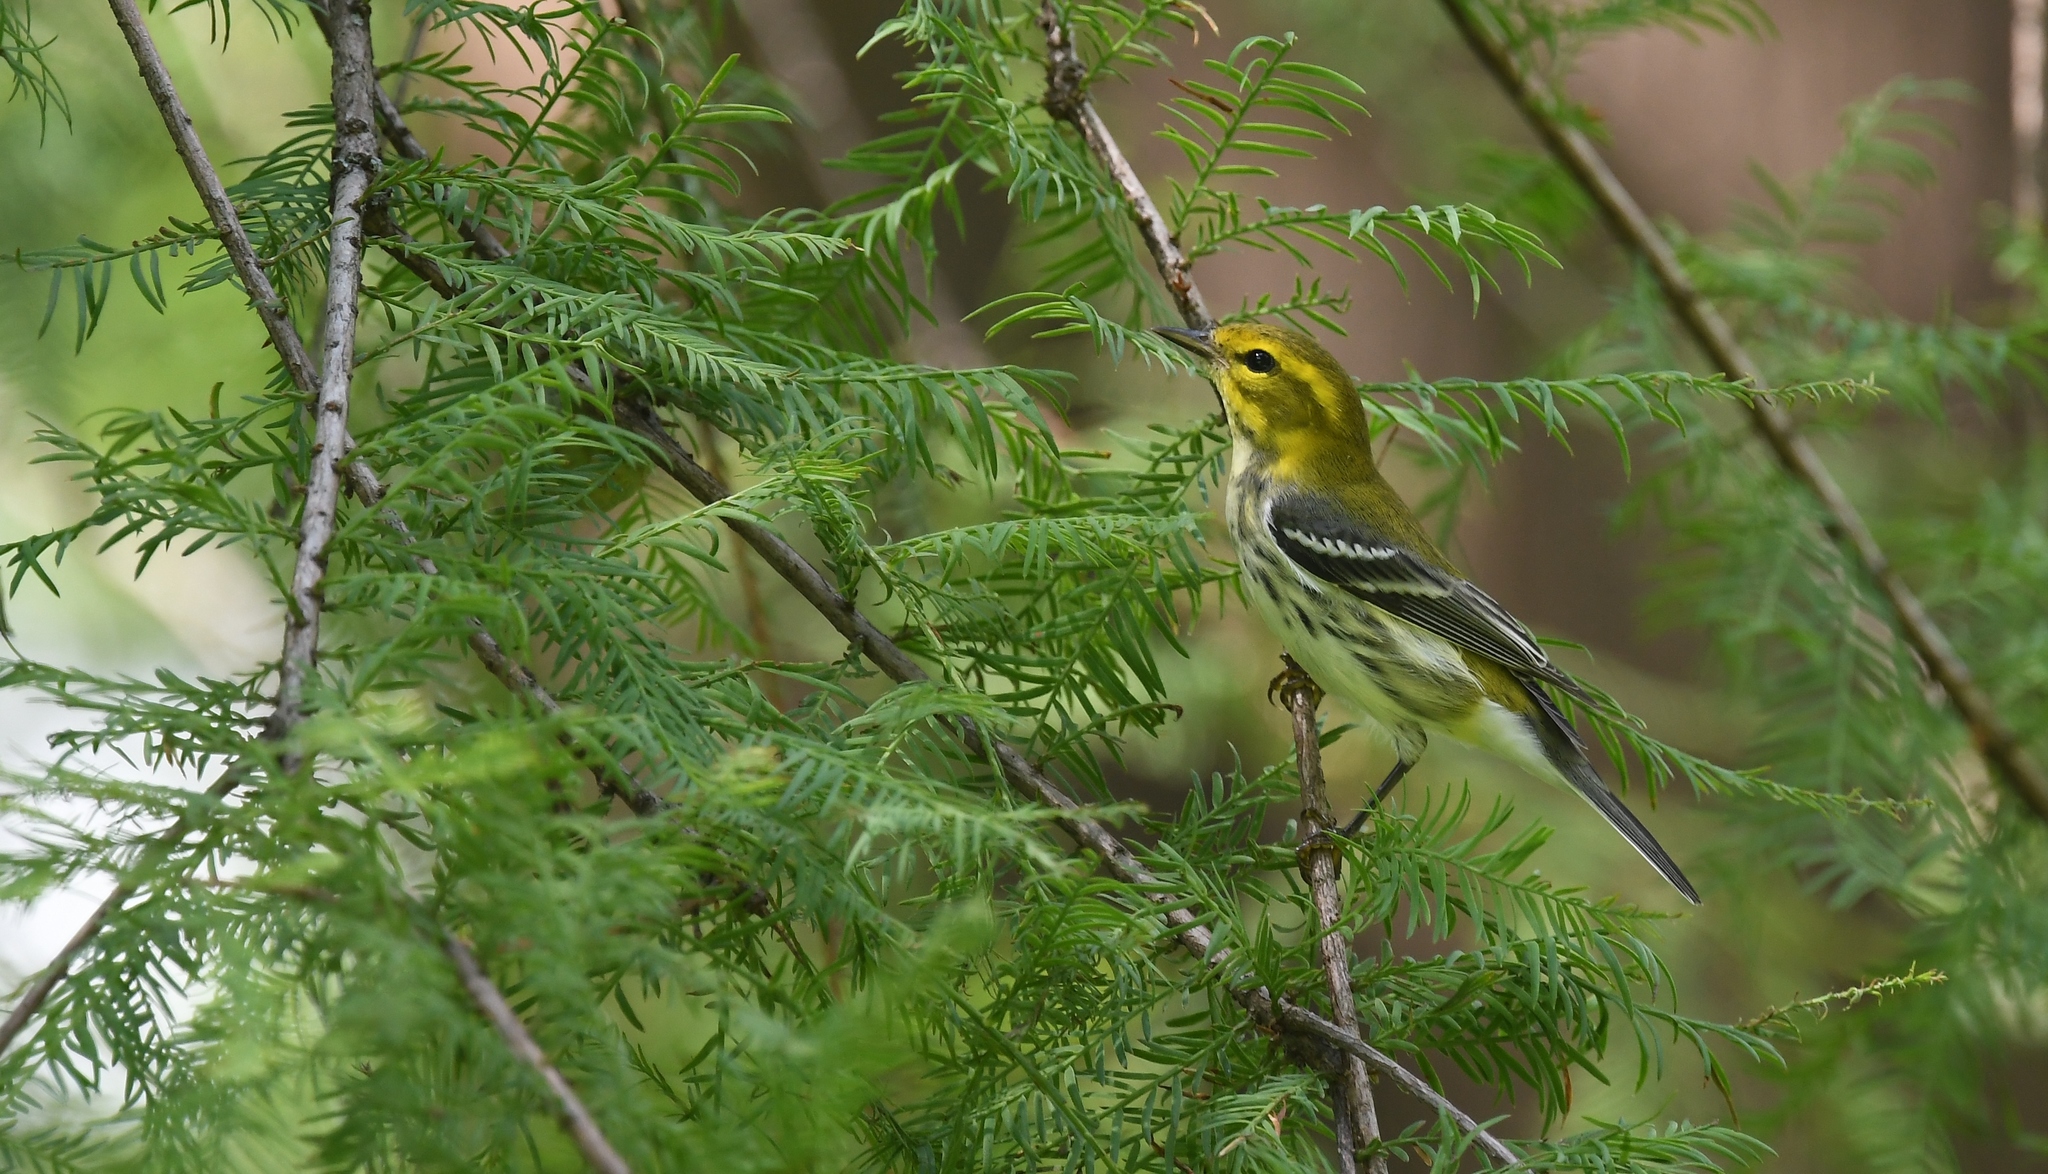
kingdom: Animalia
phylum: Chordata
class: Aves
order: Passeriformes
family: Parulidae
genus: Setophaga
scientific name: Setophaga virens
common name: Black-throated green warbler
